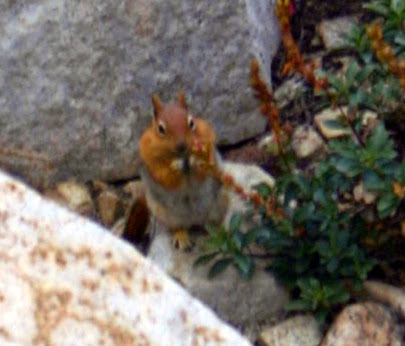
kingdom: Animalia
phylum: Chordata
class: Mammalia
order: Rodentia
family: Sciuridae
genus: Callospermophilus
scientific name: Callospermophilus lateralis
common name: Golden-mantled ground squirrel
